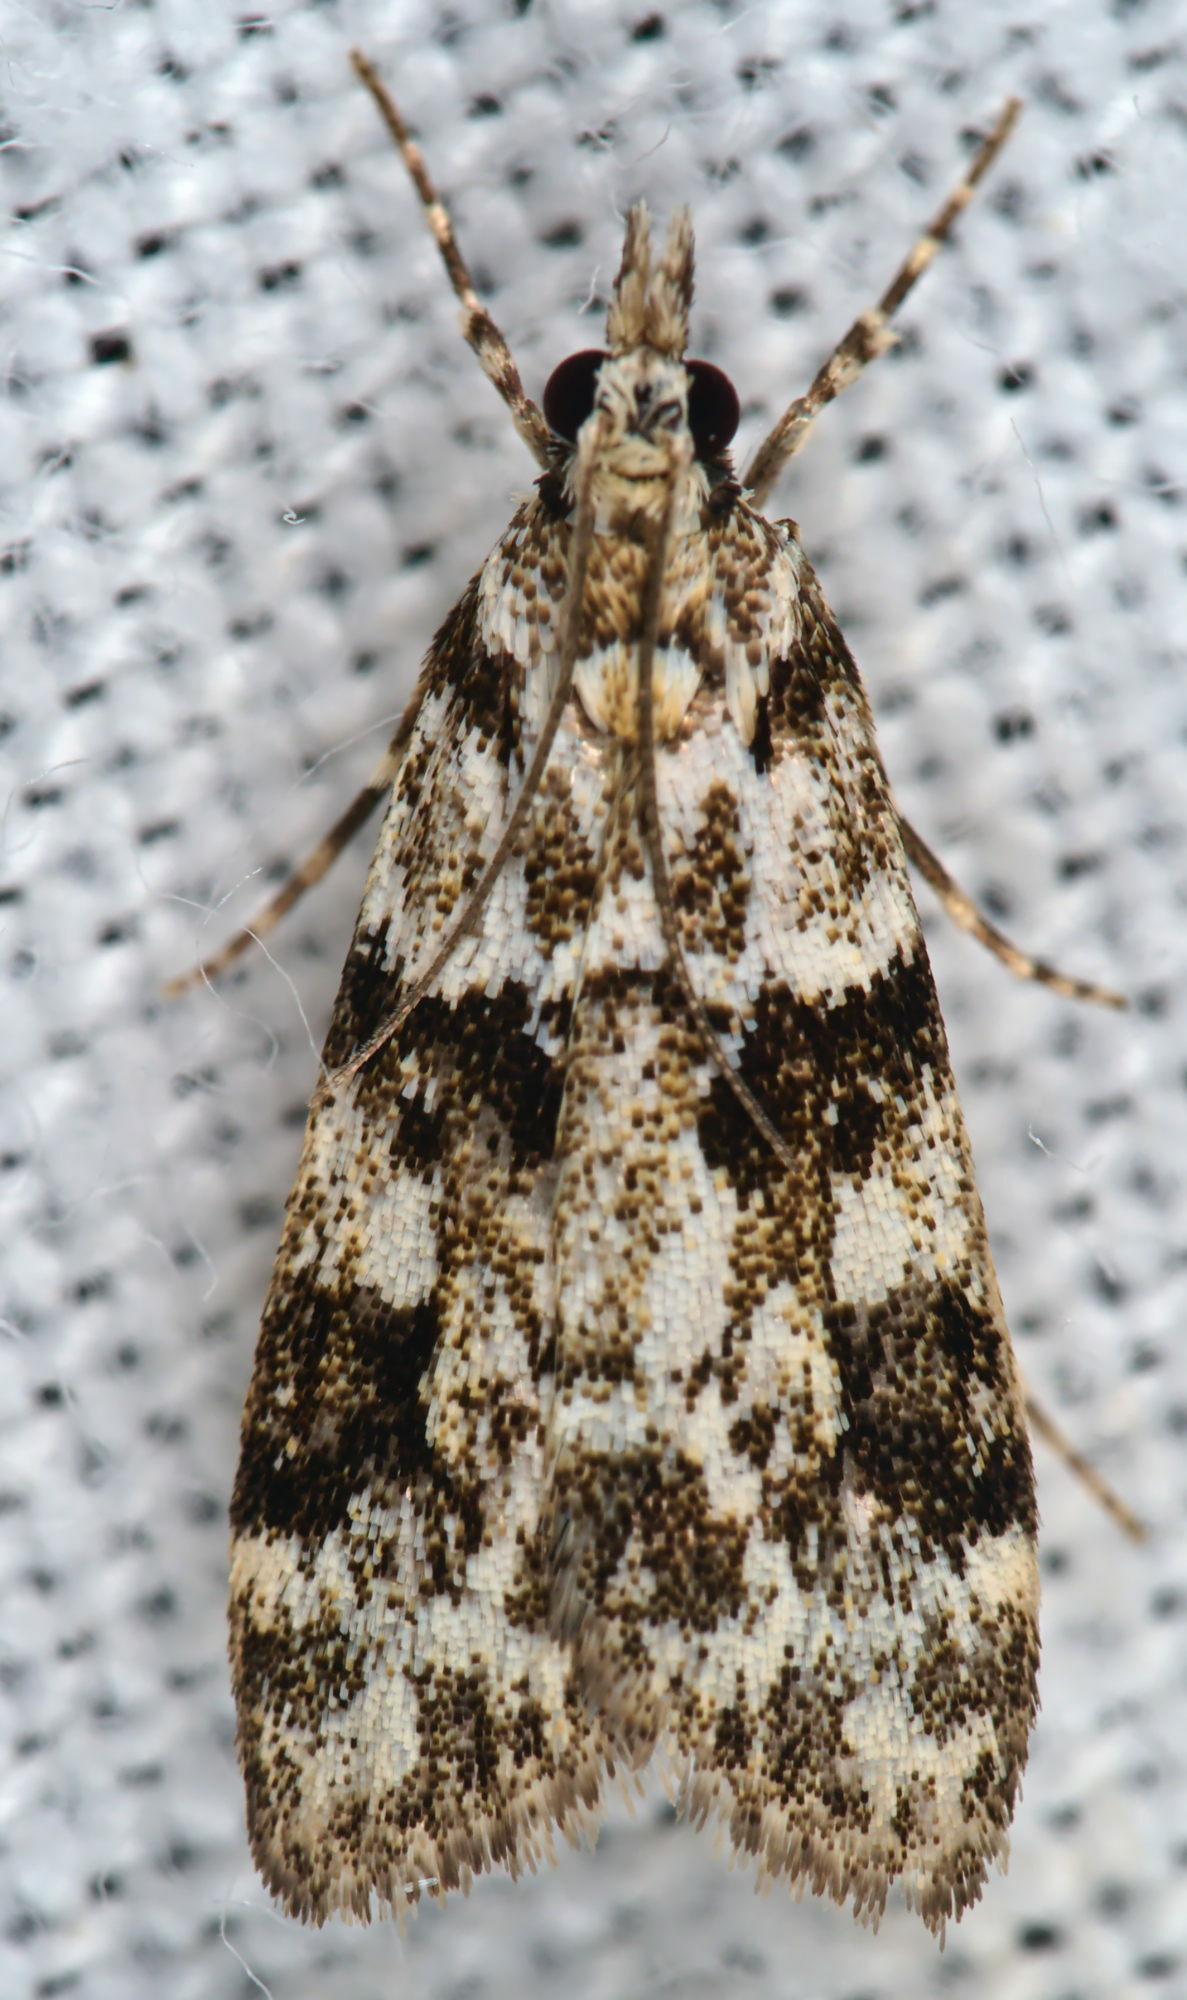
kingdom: Animalia
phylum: Arthropoda
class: Insecta
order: Lepidoptera
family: Crambidae
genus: Eudonia
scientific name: Eudonia delunella
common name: Pied grey
